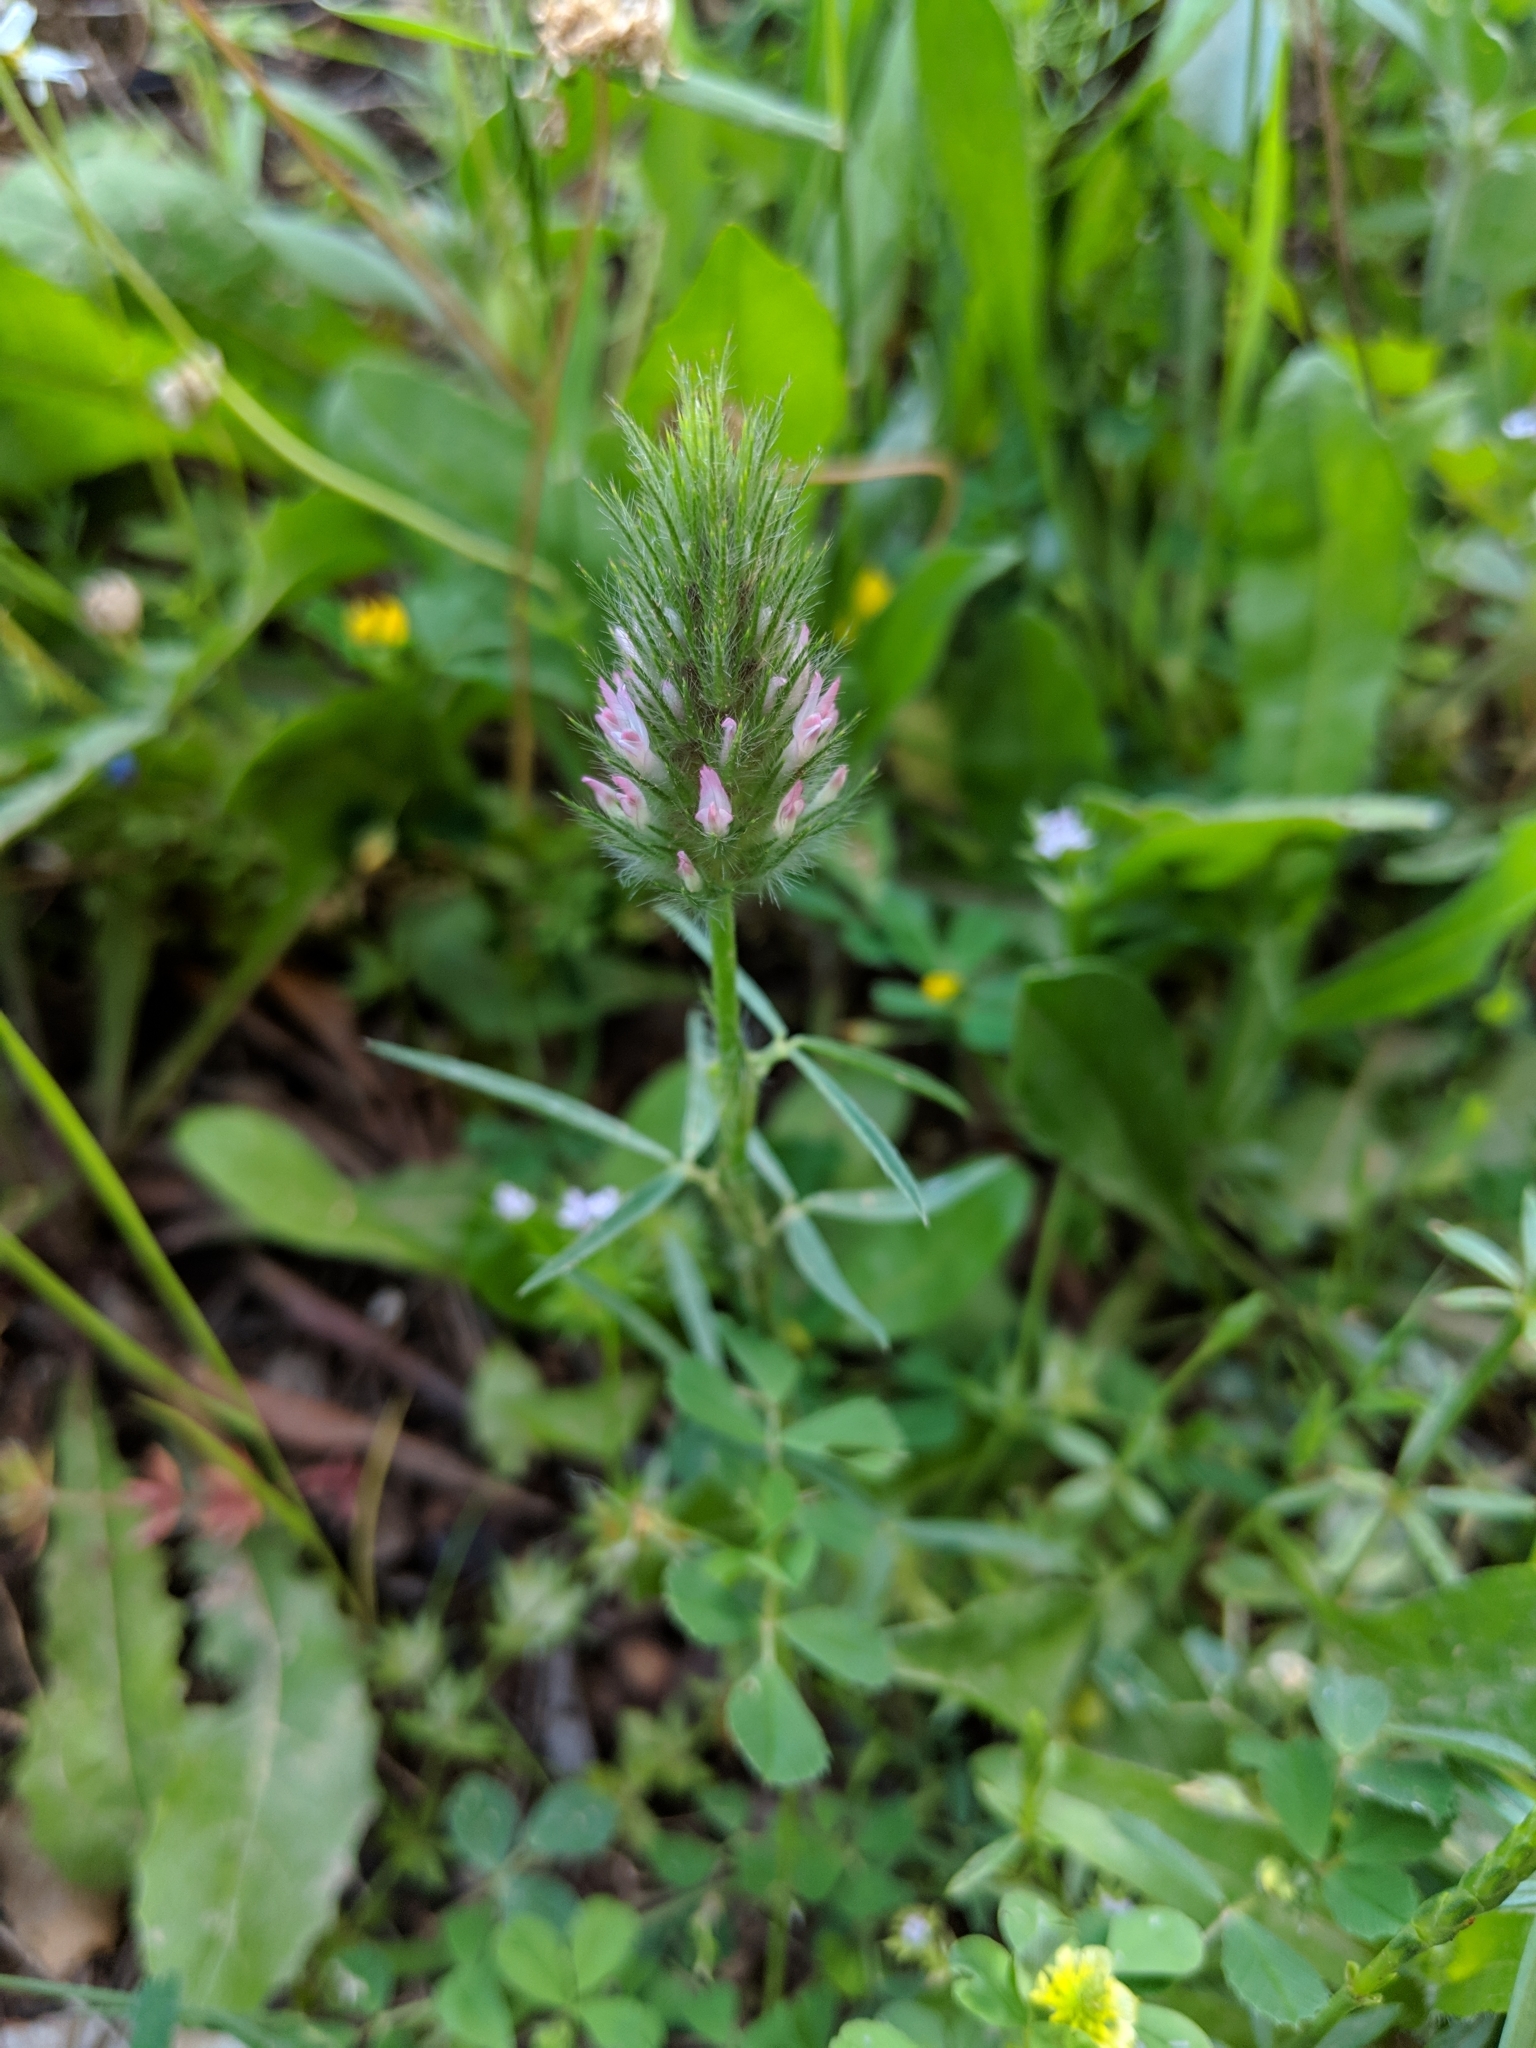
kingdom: Plantae
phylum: Tracheophyta
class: Magnoliopsida
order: Fabales
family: Fabaceae
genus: Trifolium
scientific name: Trifolium angustifolium
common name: Narrow clover
